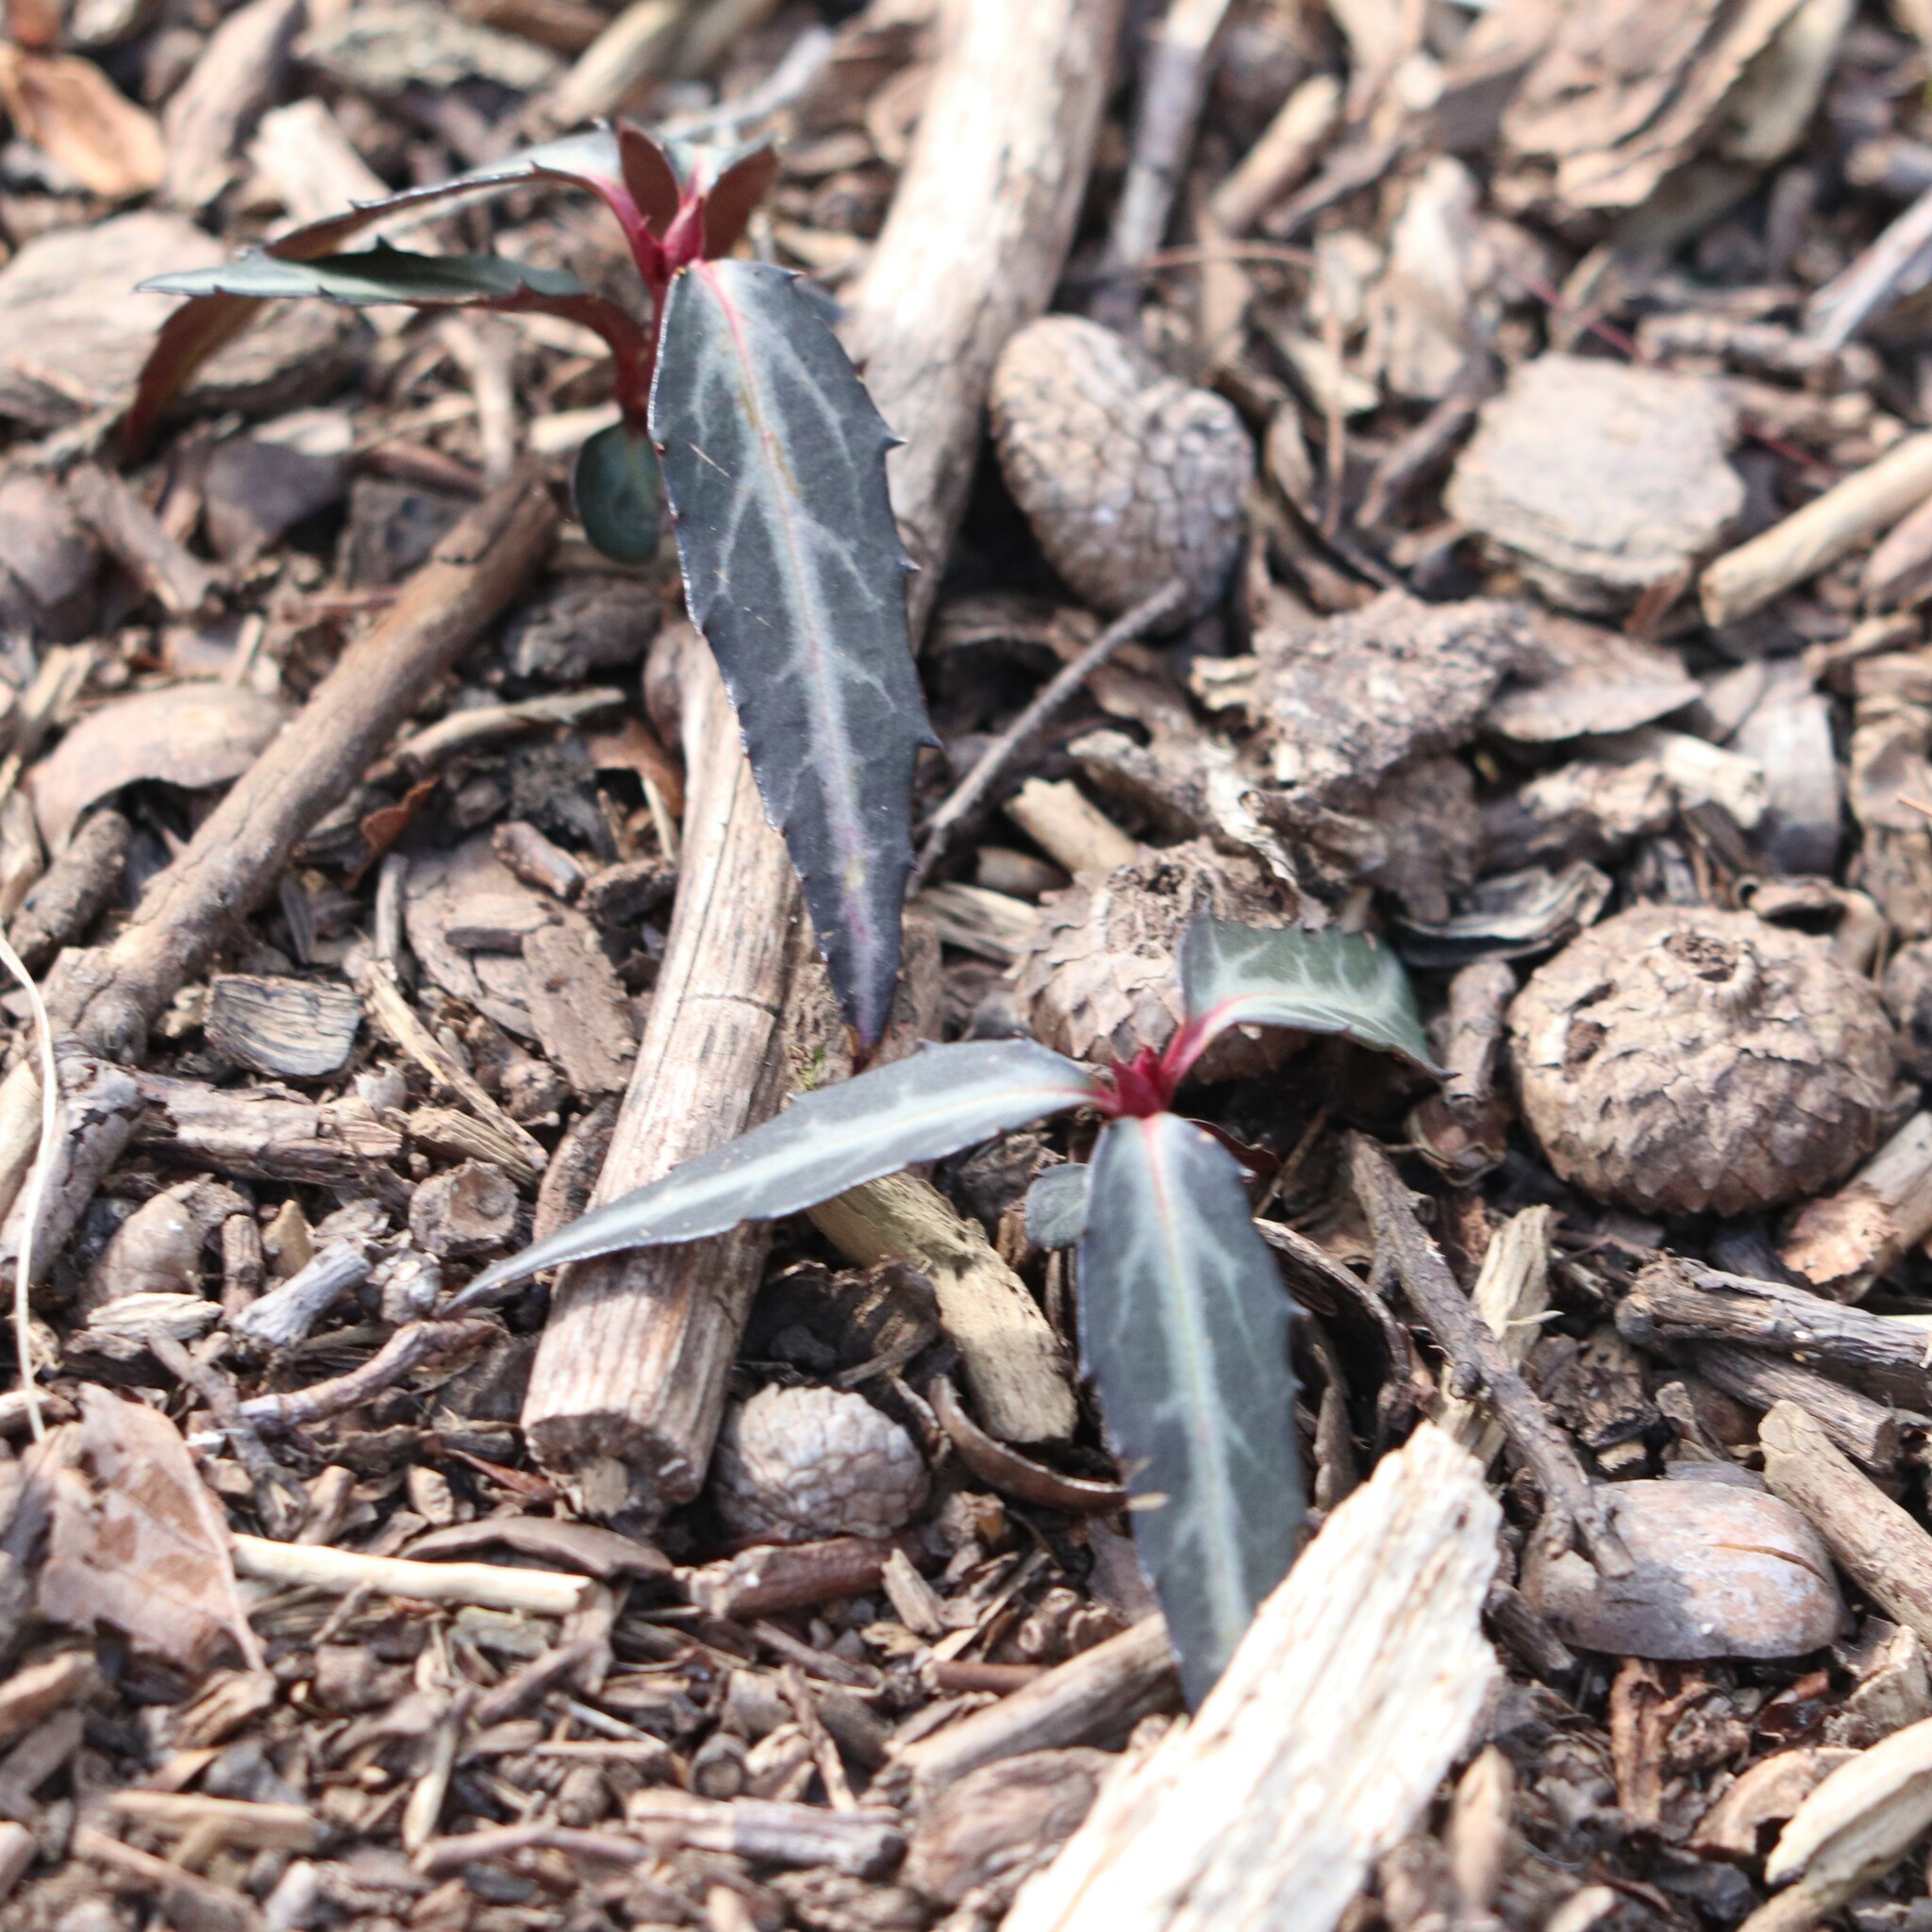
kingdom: Plantae
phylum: Tracheophyta
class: Magnoliopsida
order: Ericales
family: Ericaceae
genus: Chimaphila
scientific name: Chimaphila maculata
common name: Spotted pipsissewa
